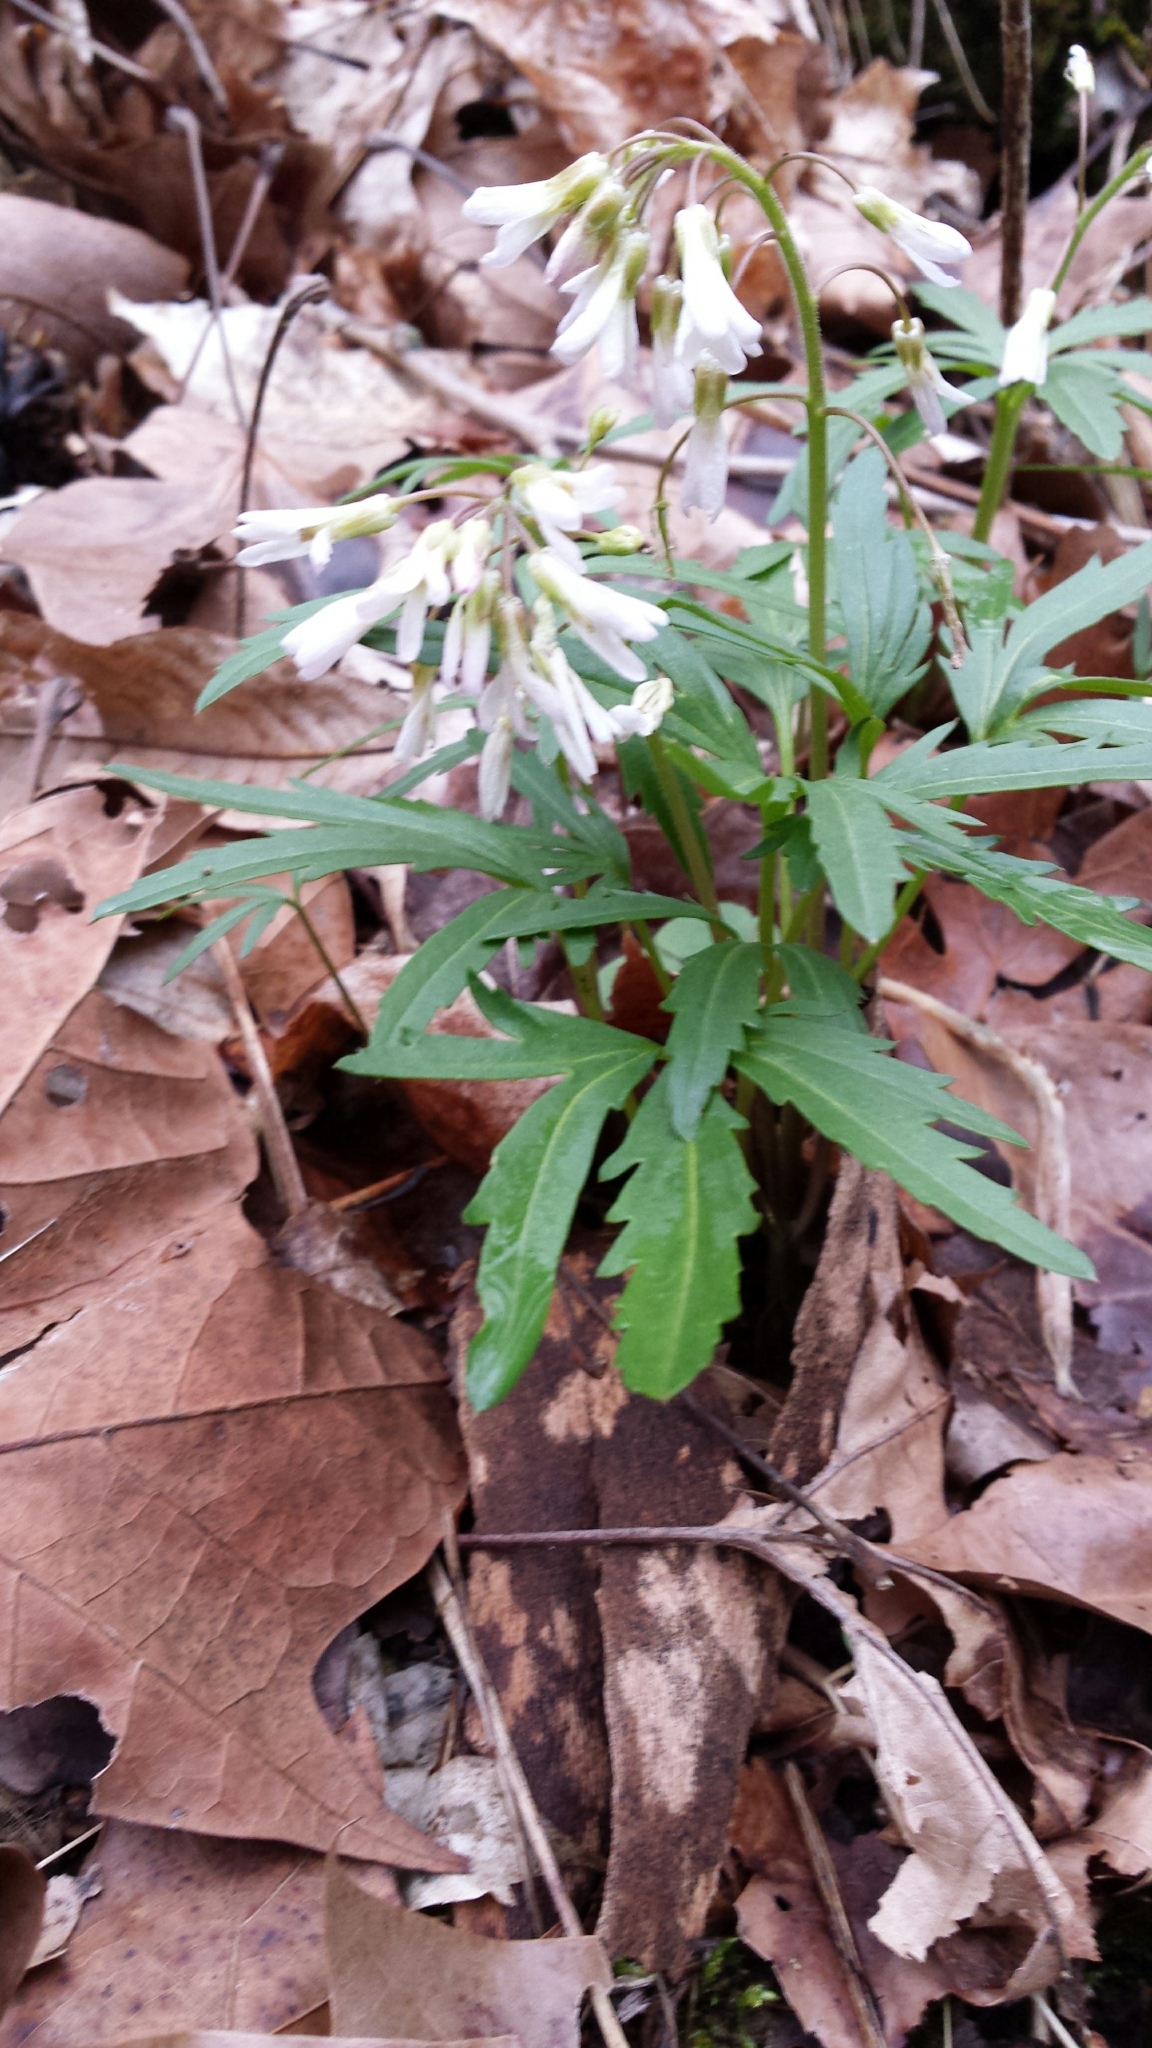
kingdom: Plantae
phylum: Tracheophyta
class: Magnoliopsida
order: Brassicales
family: Brassicaceae
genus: Cardamine
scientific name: Cardamine concatenata
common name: Cut-leaf toothcup
